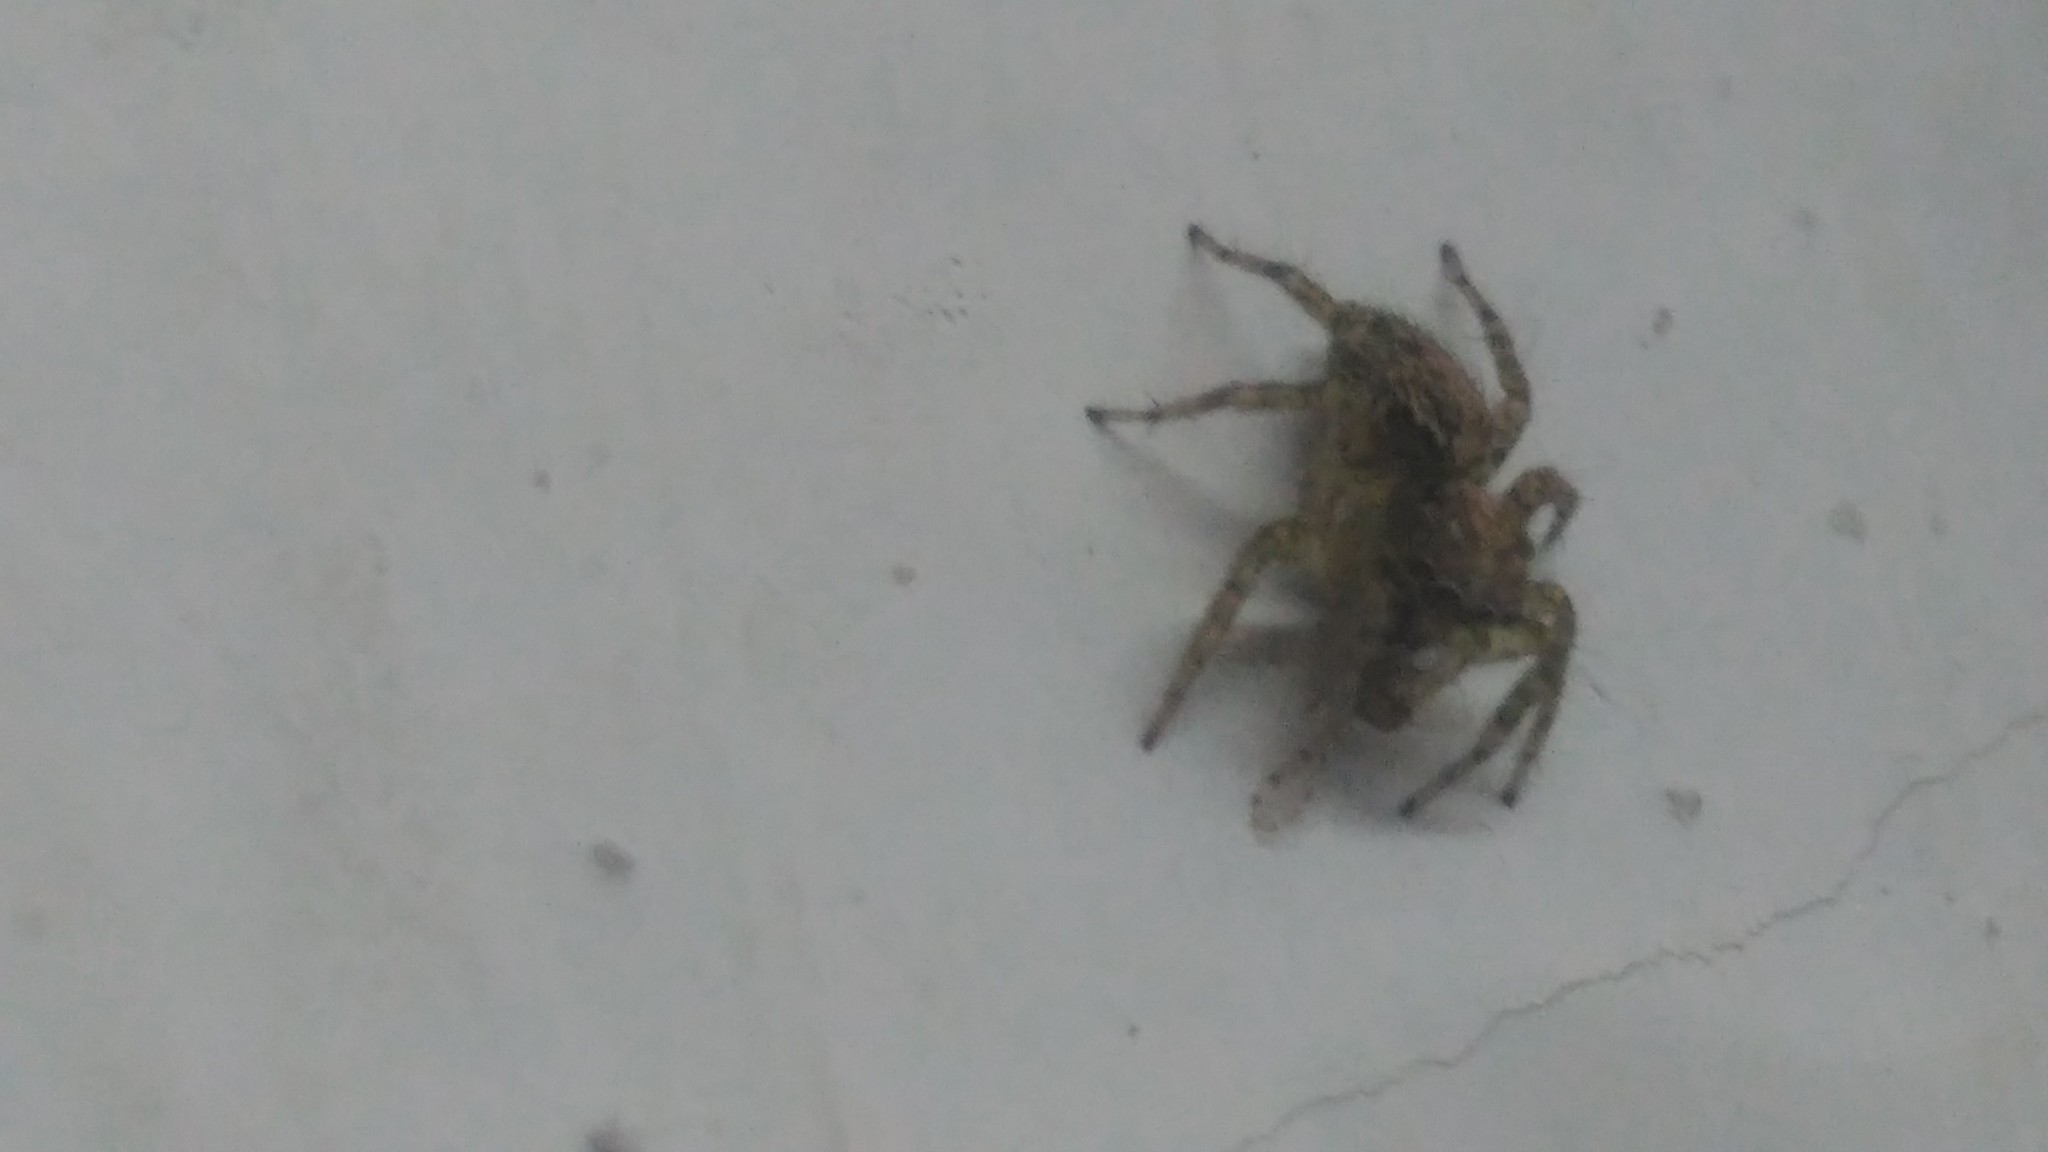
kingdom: Animalia
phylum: Arthropoda
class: Arachnida
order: Araneae
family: Salticidae
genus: Saitis
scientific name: Saitis variegatus
